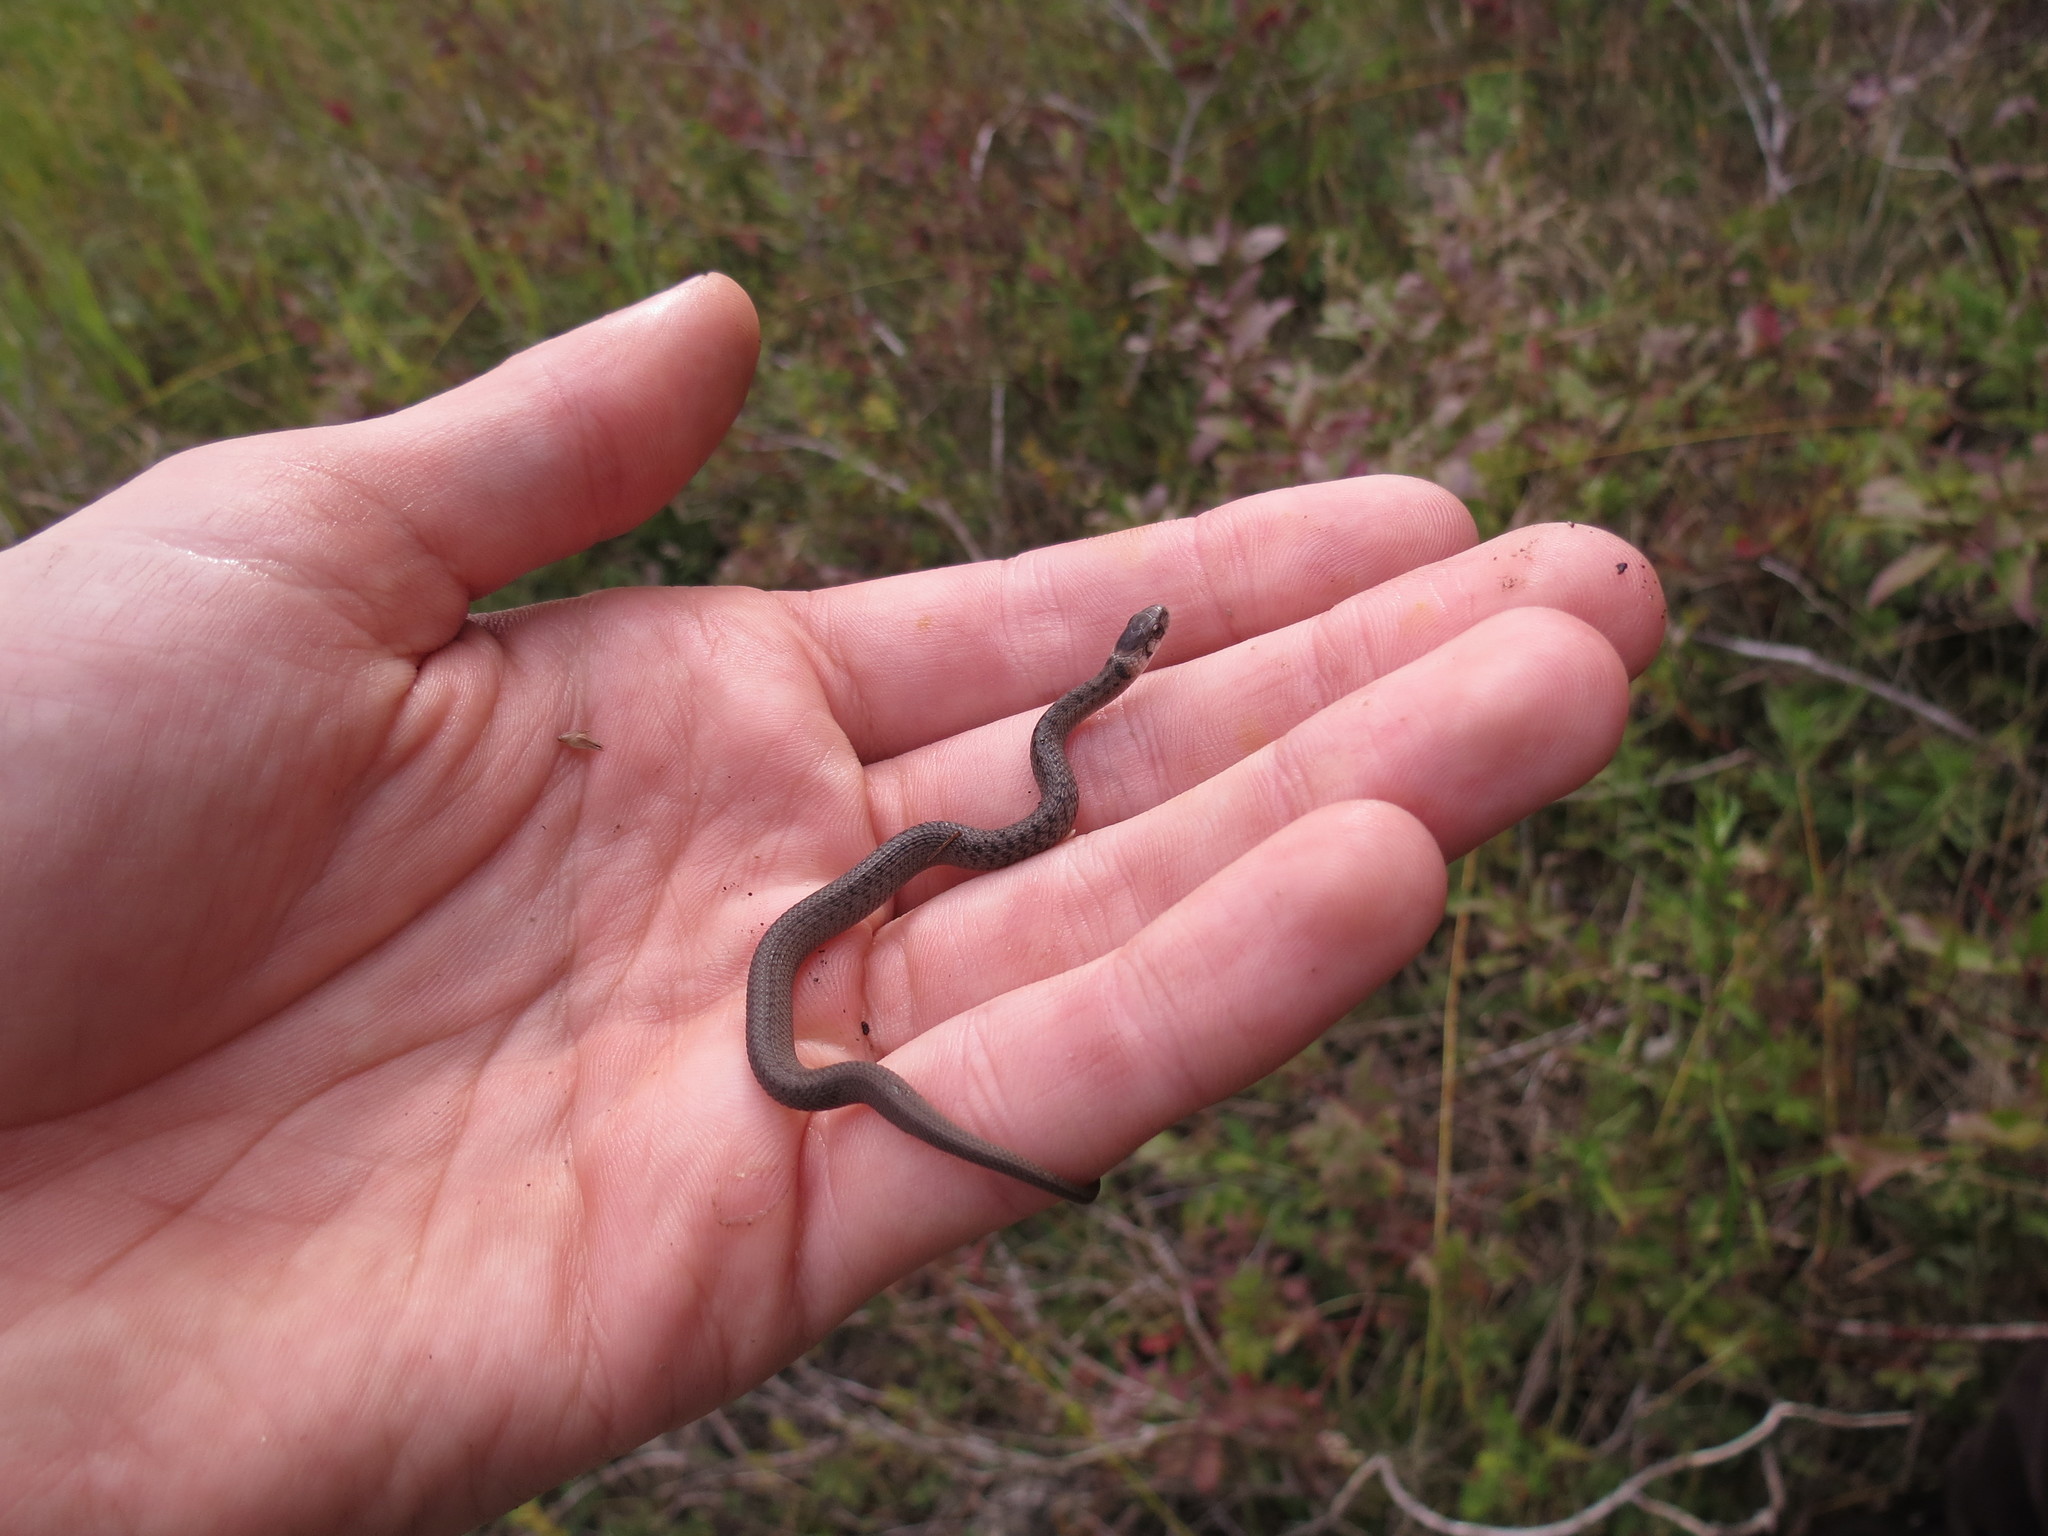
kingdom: Animalia
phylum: Chordata
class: Squamata
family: Colubridae
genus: Storeria
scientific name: Storeria dekayi
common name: (dekay’s) brown snake
